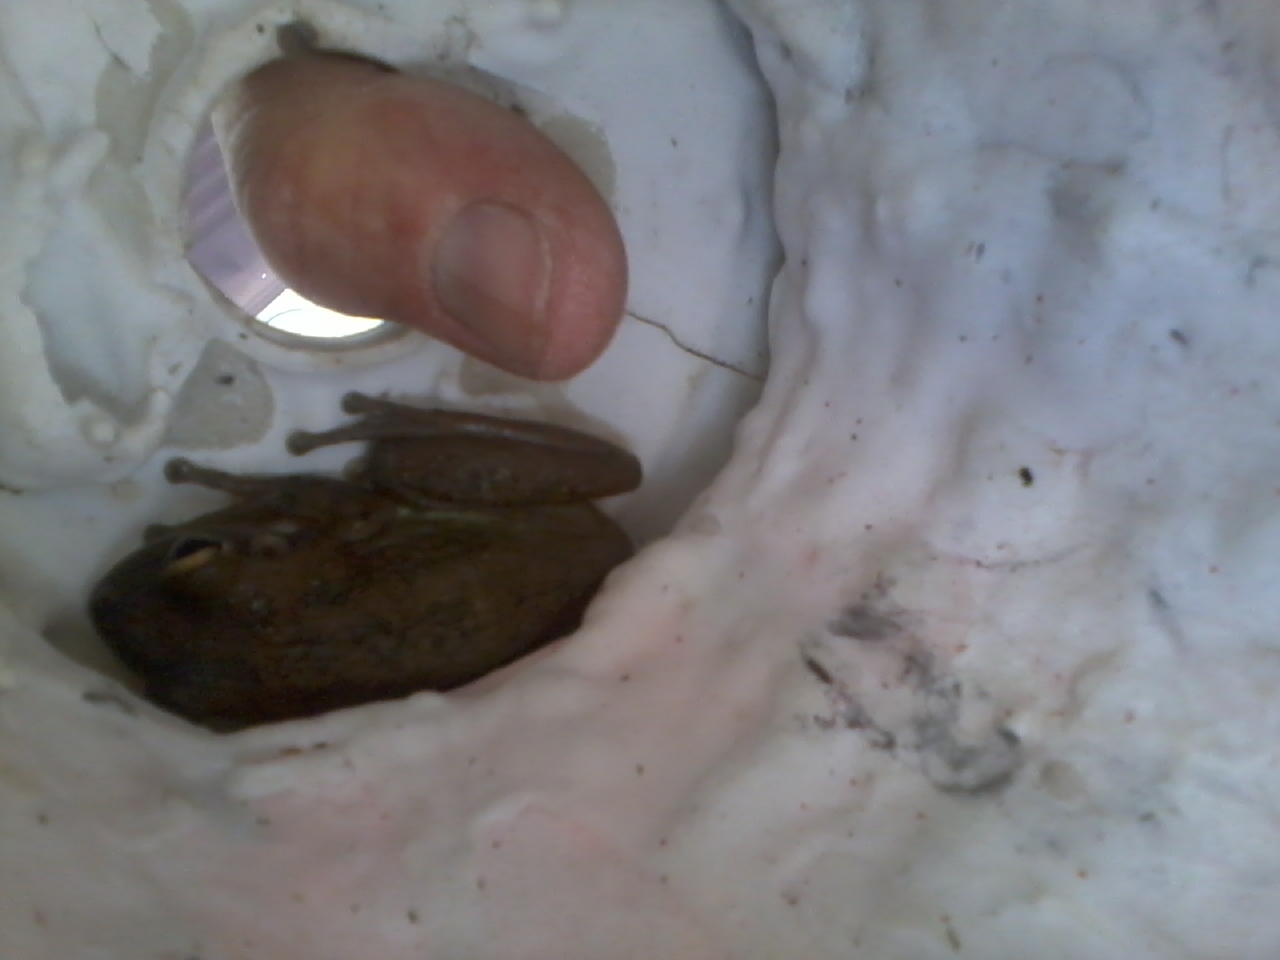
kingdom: Animalia
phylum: Chordata
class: Amphibia
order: Anura
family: Hylidae
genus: Osteopilus
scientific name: Osteopilus septentrionalis
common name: Cuban treefrog
